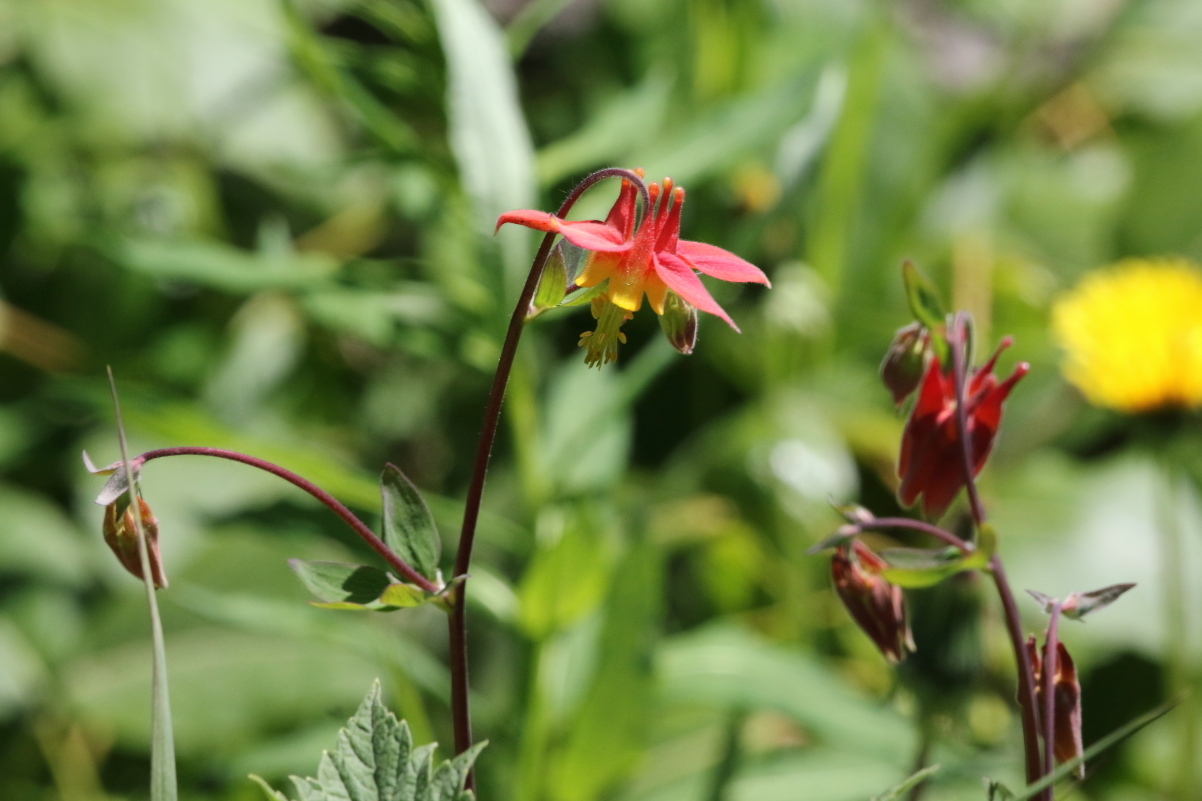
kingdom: Plantae
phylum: Tracheophyta
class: Magnoliopsida
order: Ranunculales
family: Ranunculaceae
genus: Aquilegia
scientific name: Aquilegia formosa
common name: Sitka columbine
